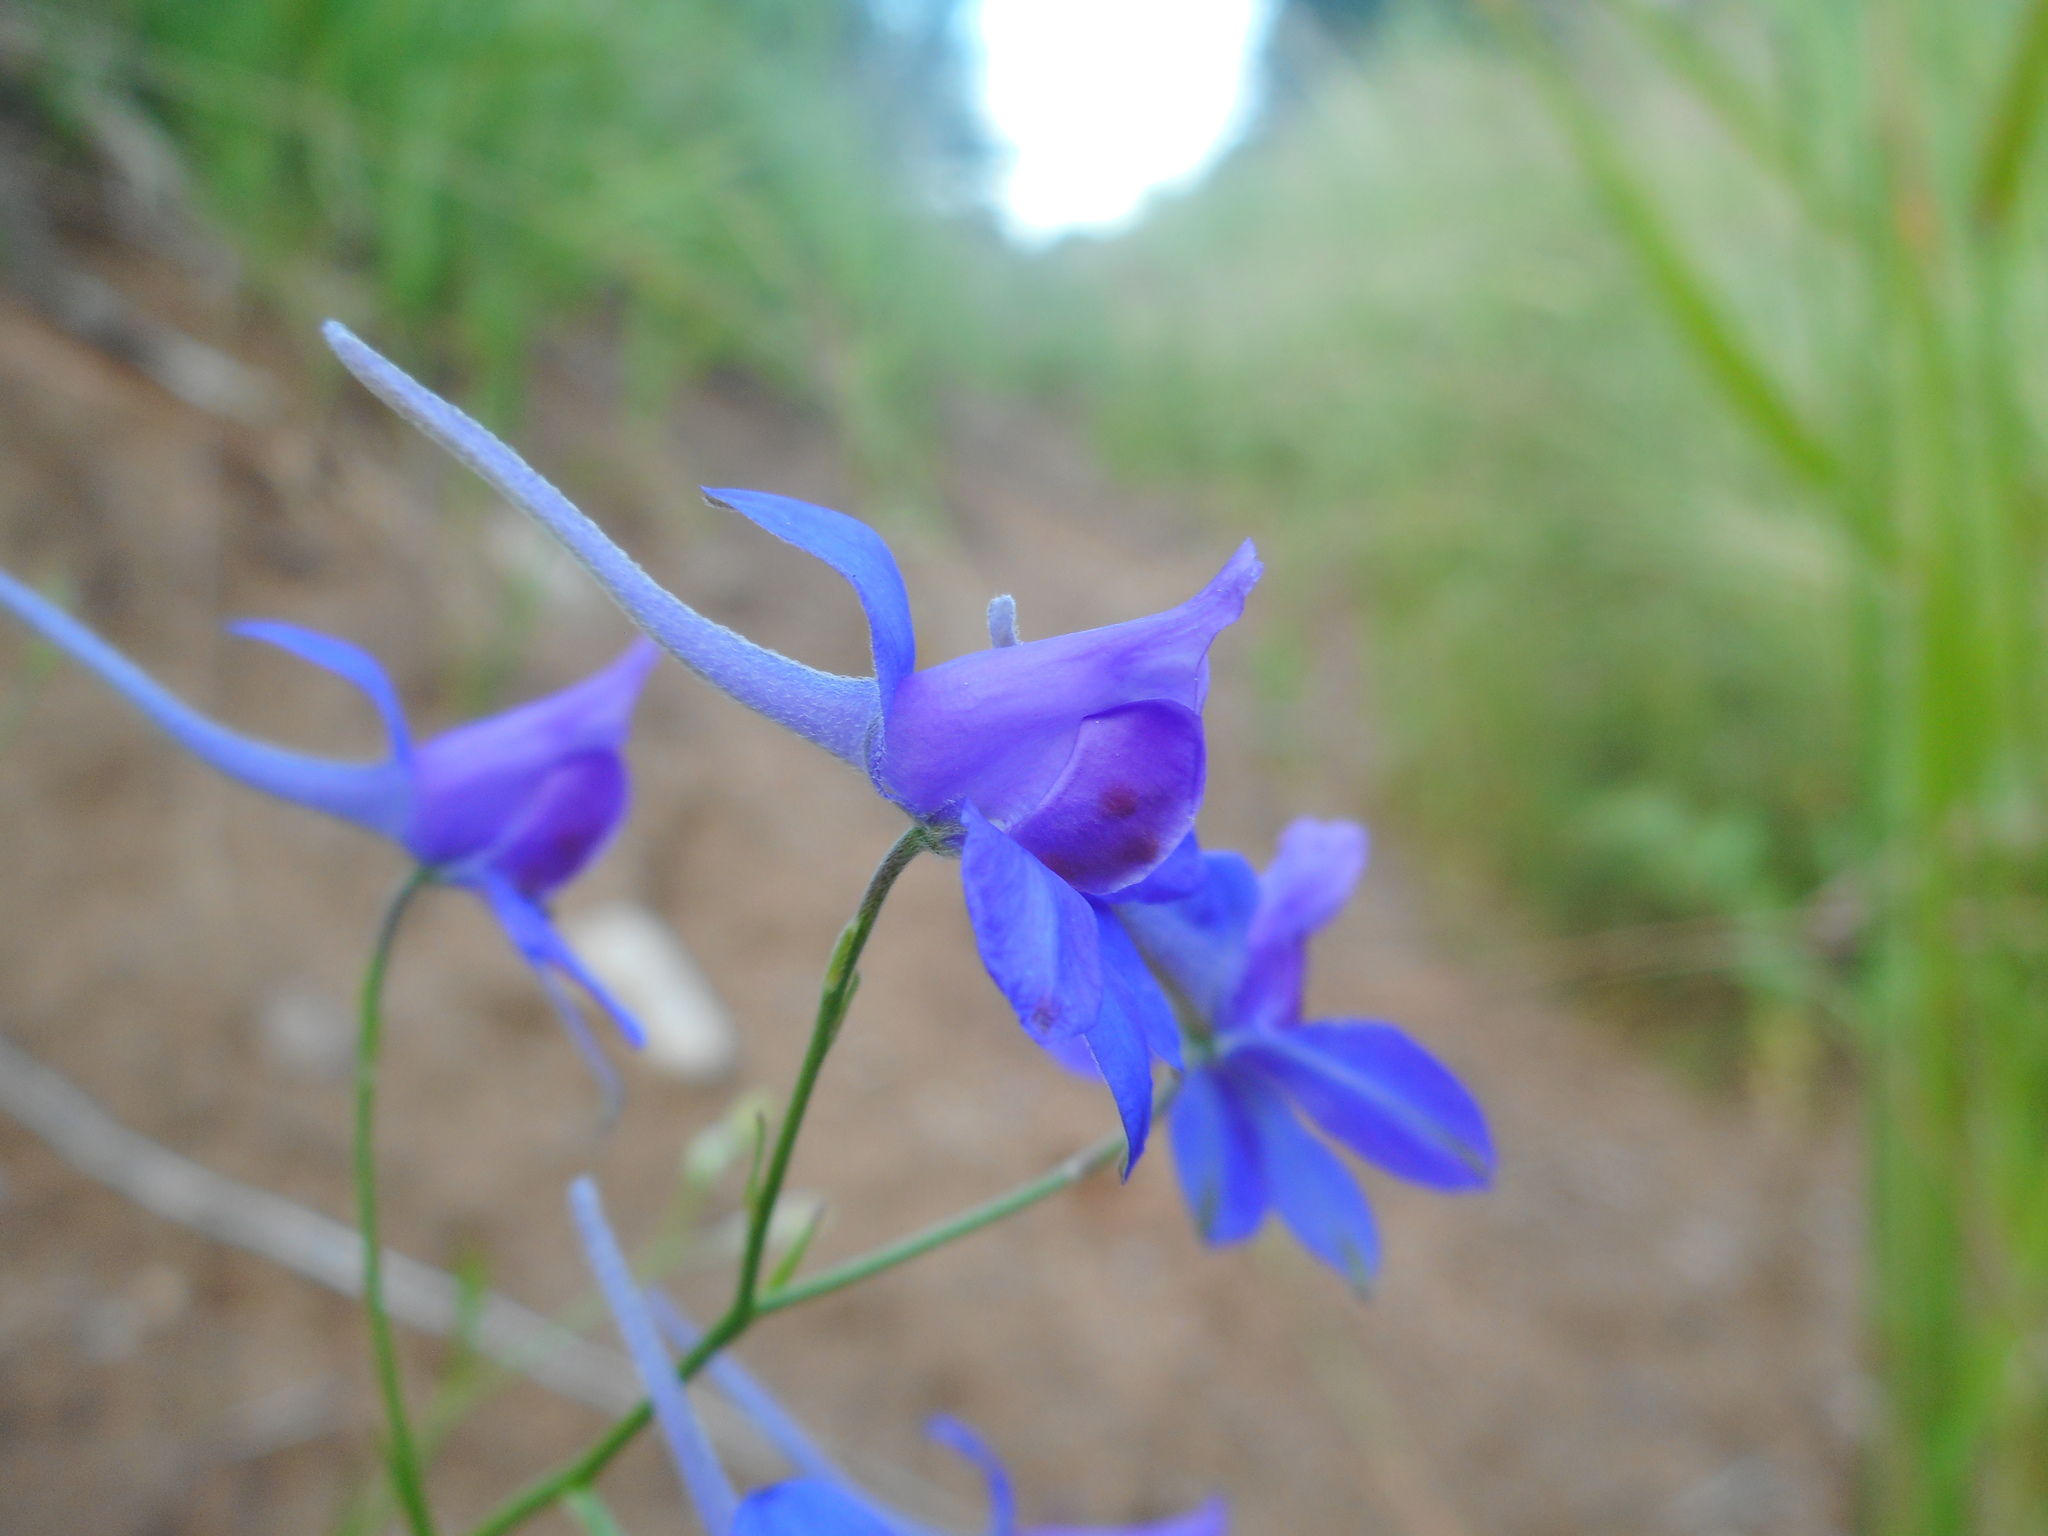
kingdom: Plantae
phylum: Tracheophyta
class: Magnoliopsida
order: Ranunculales
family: Ranunculaceae
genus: Delphinium
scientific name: Delphinium consolida
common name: Branching larkspur
